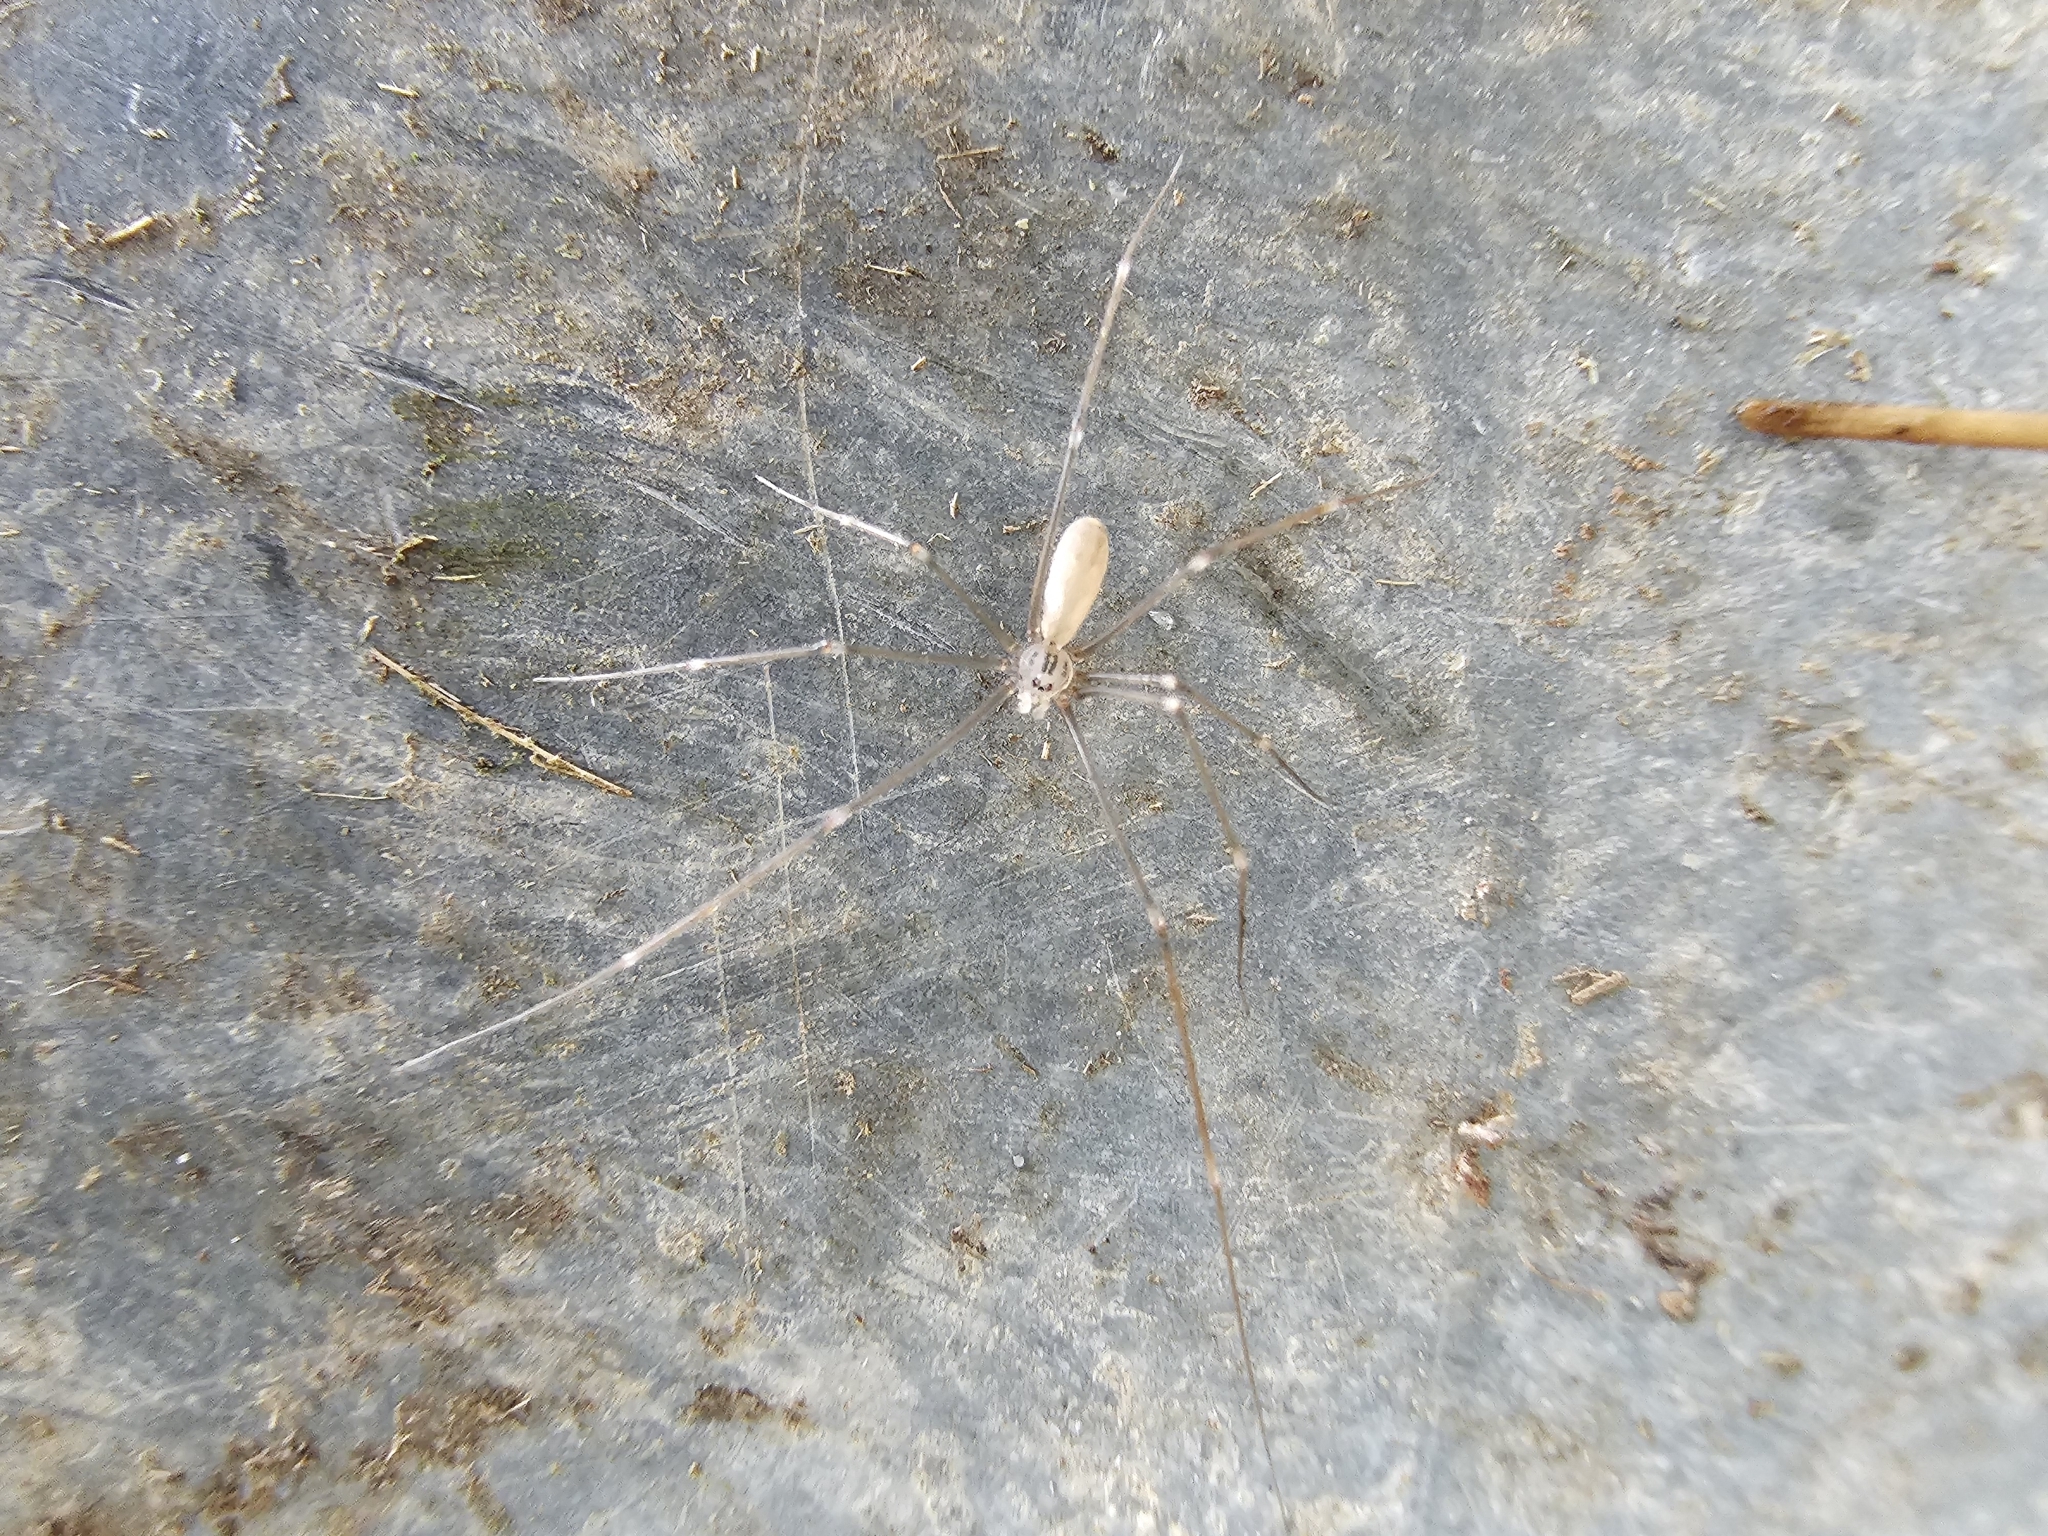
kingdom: Animalia
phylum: Arthropoda
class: Arachnida
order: Araneae
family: Pholcidae
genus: Pholcus
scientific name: Pholcus opilionoides
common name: Daddylongleg spider
